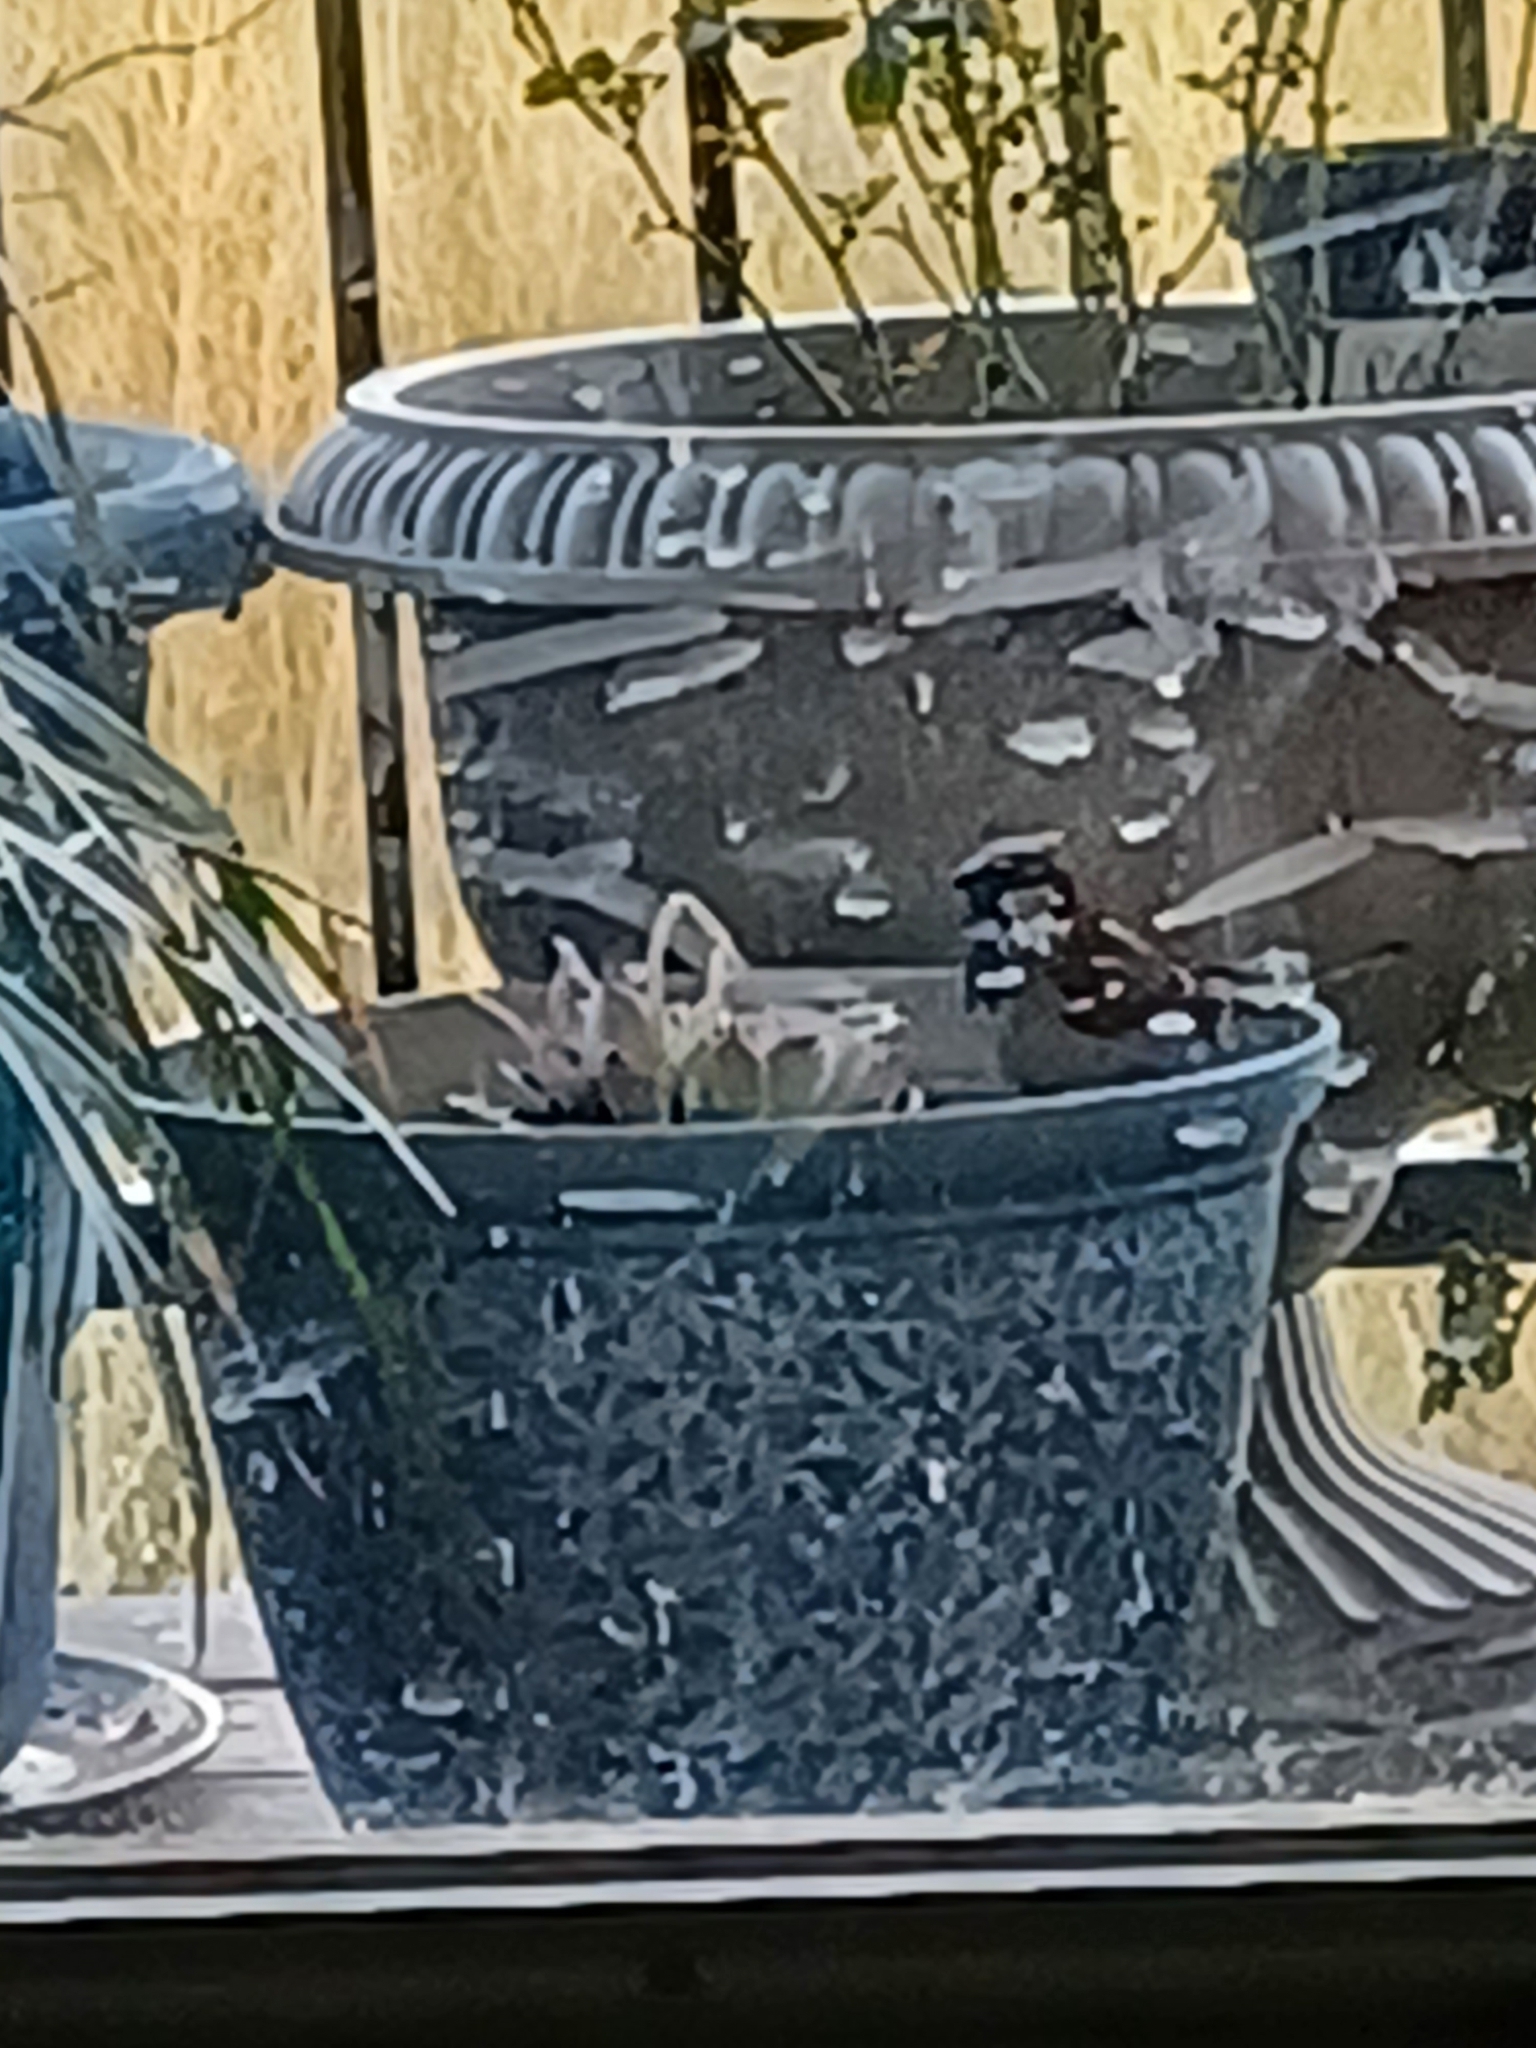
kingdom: Animalia
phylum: Chordata
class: Aves
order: Passeriformes
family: Passeridae
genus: Passer
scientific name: Passer domesticus
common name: House sparrow
